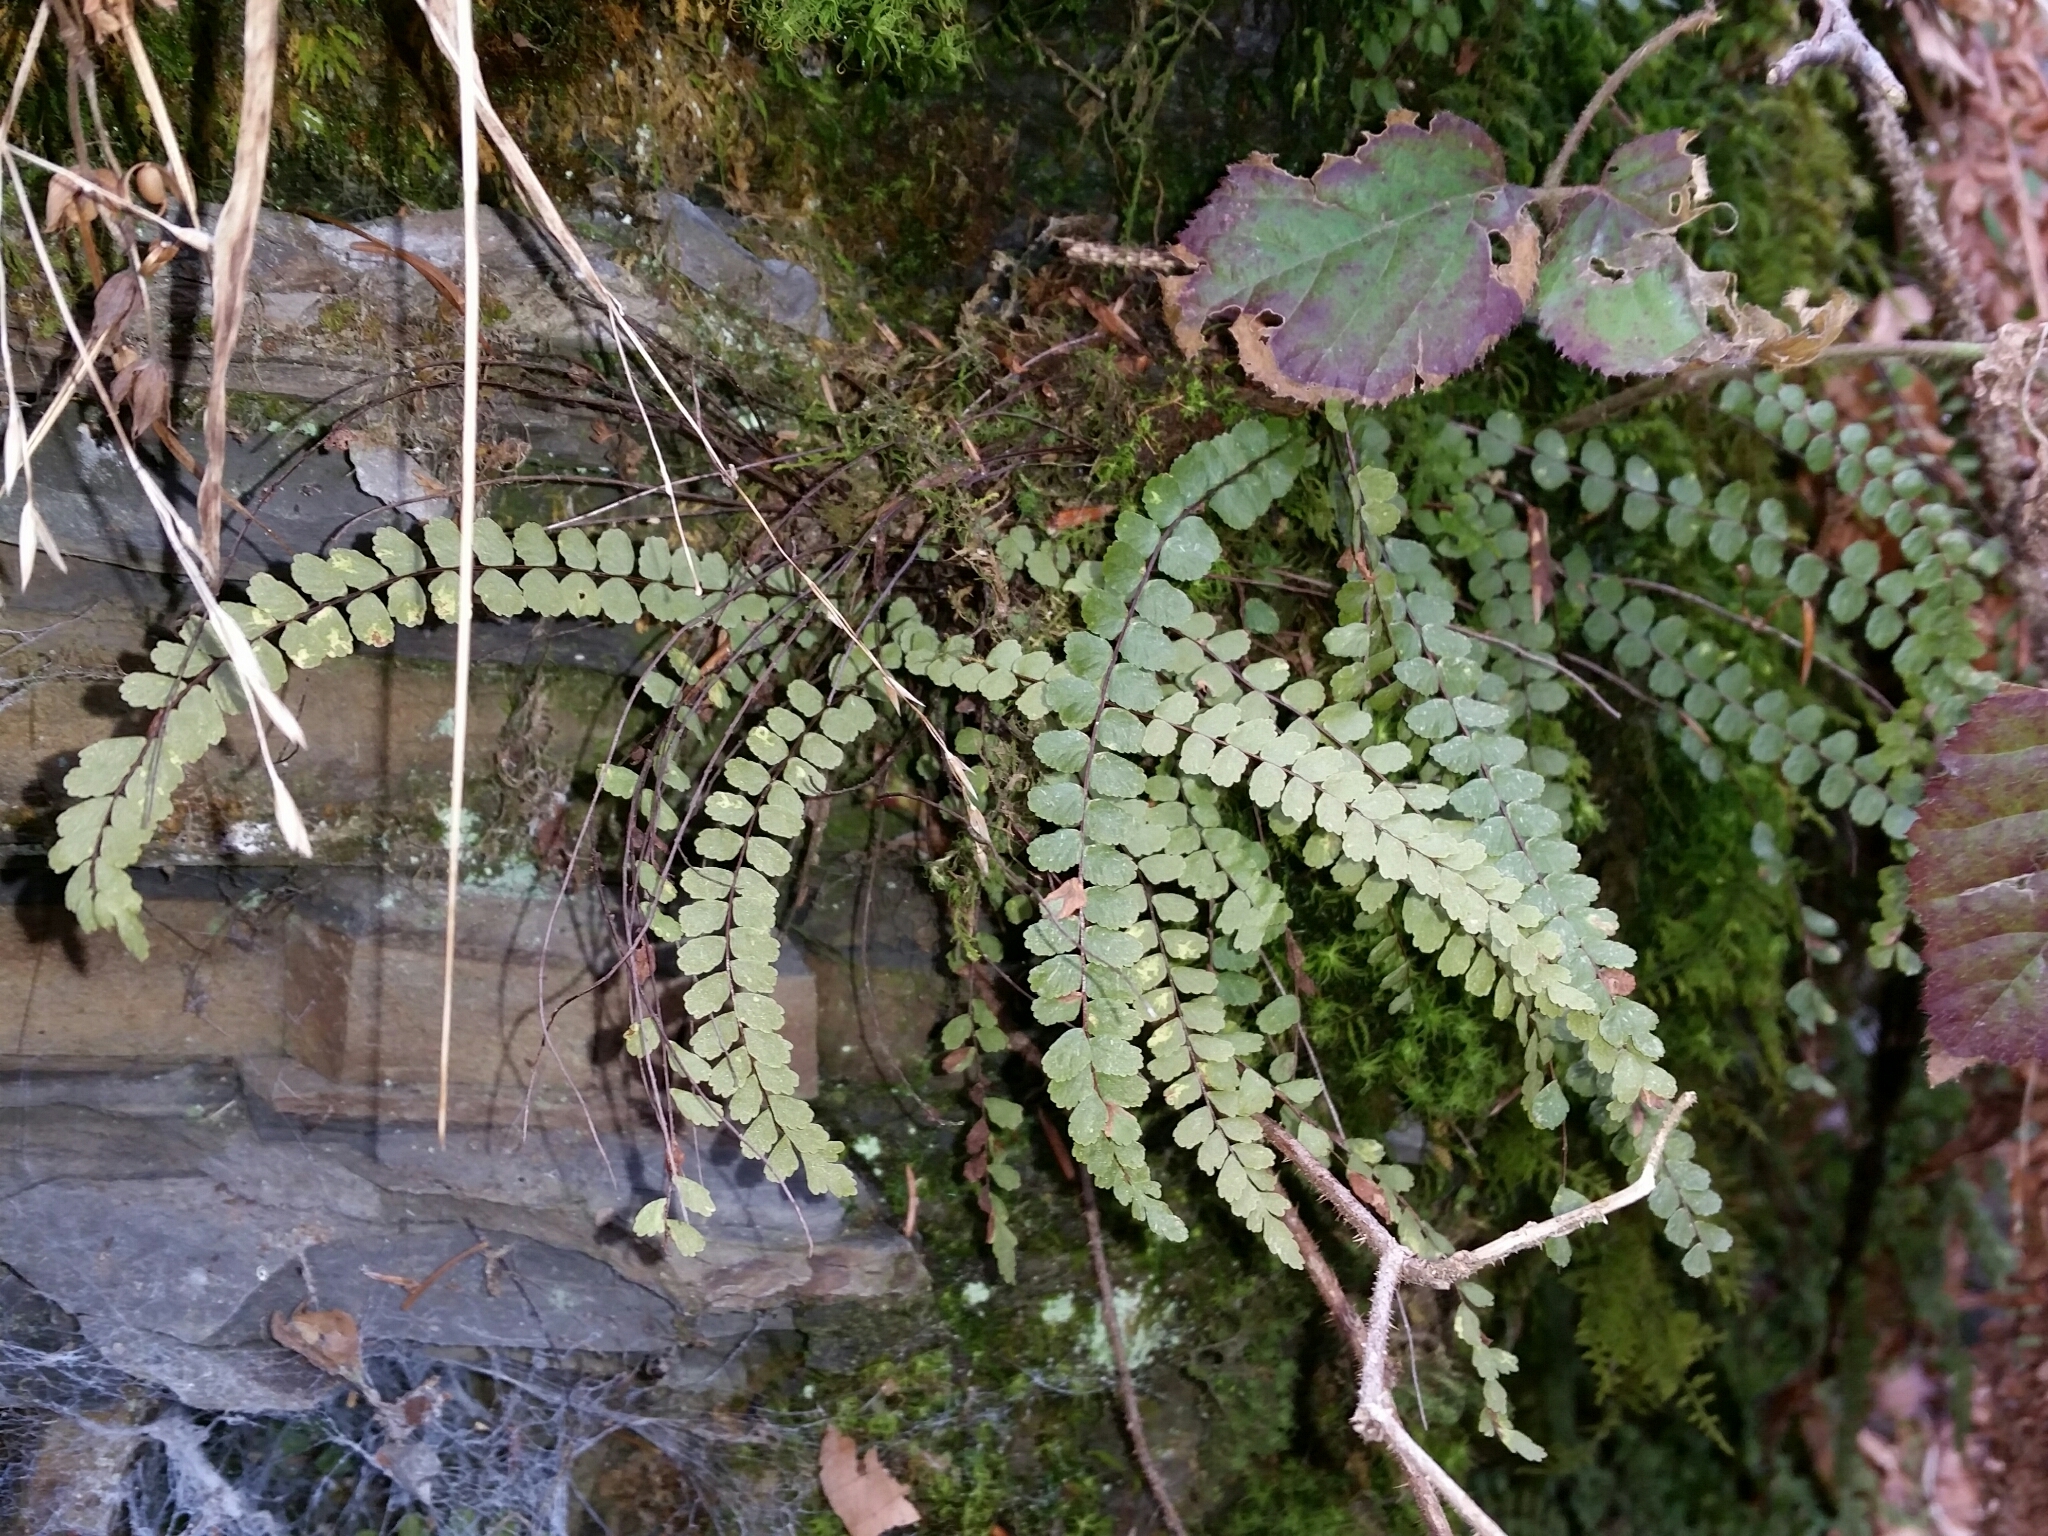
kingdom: Plantae
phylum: Tracheophyta
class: Polypodiopsida
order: Polypodiales
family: Aspleniaceae
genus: Asplenium
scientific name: Asplenium trichomanes
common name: Maidenhair spleenwort
